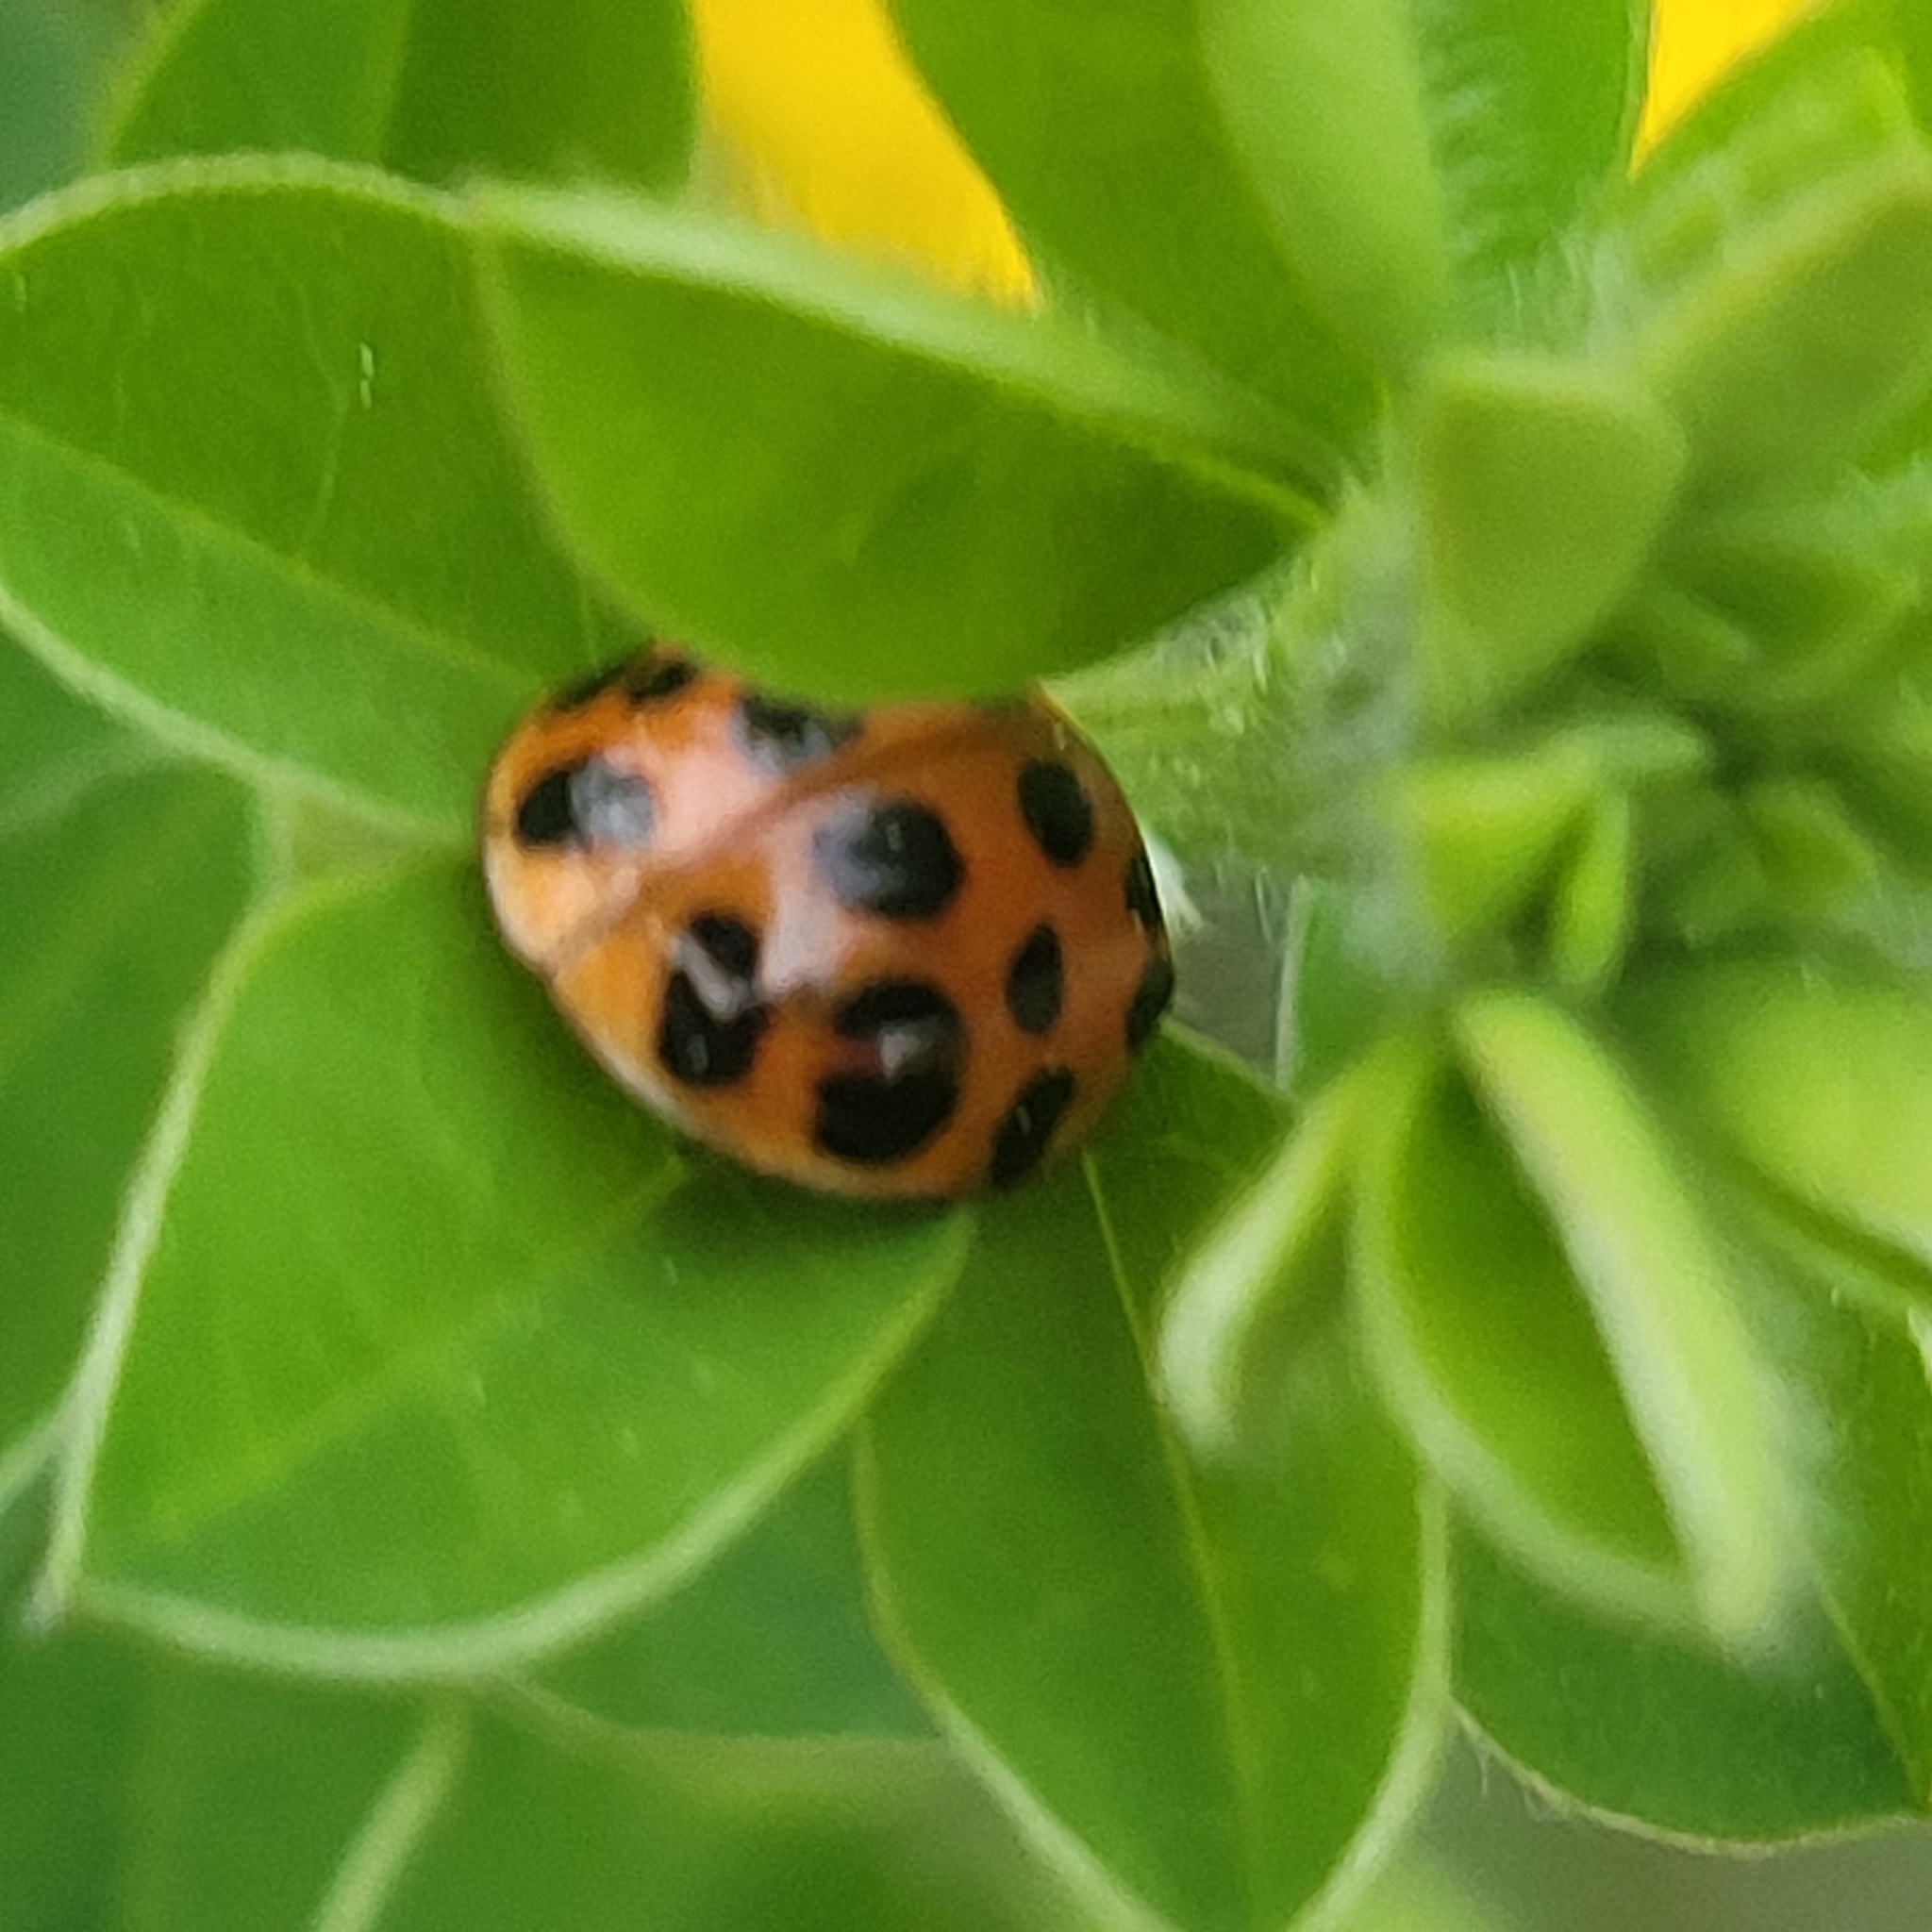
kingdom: Animalia
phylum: Arthropoda
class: Insecta
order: Coleoptera
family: Coccinellidae
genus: Harmonia
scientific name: Harmonia axyridis
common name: Harlequin ladybird
